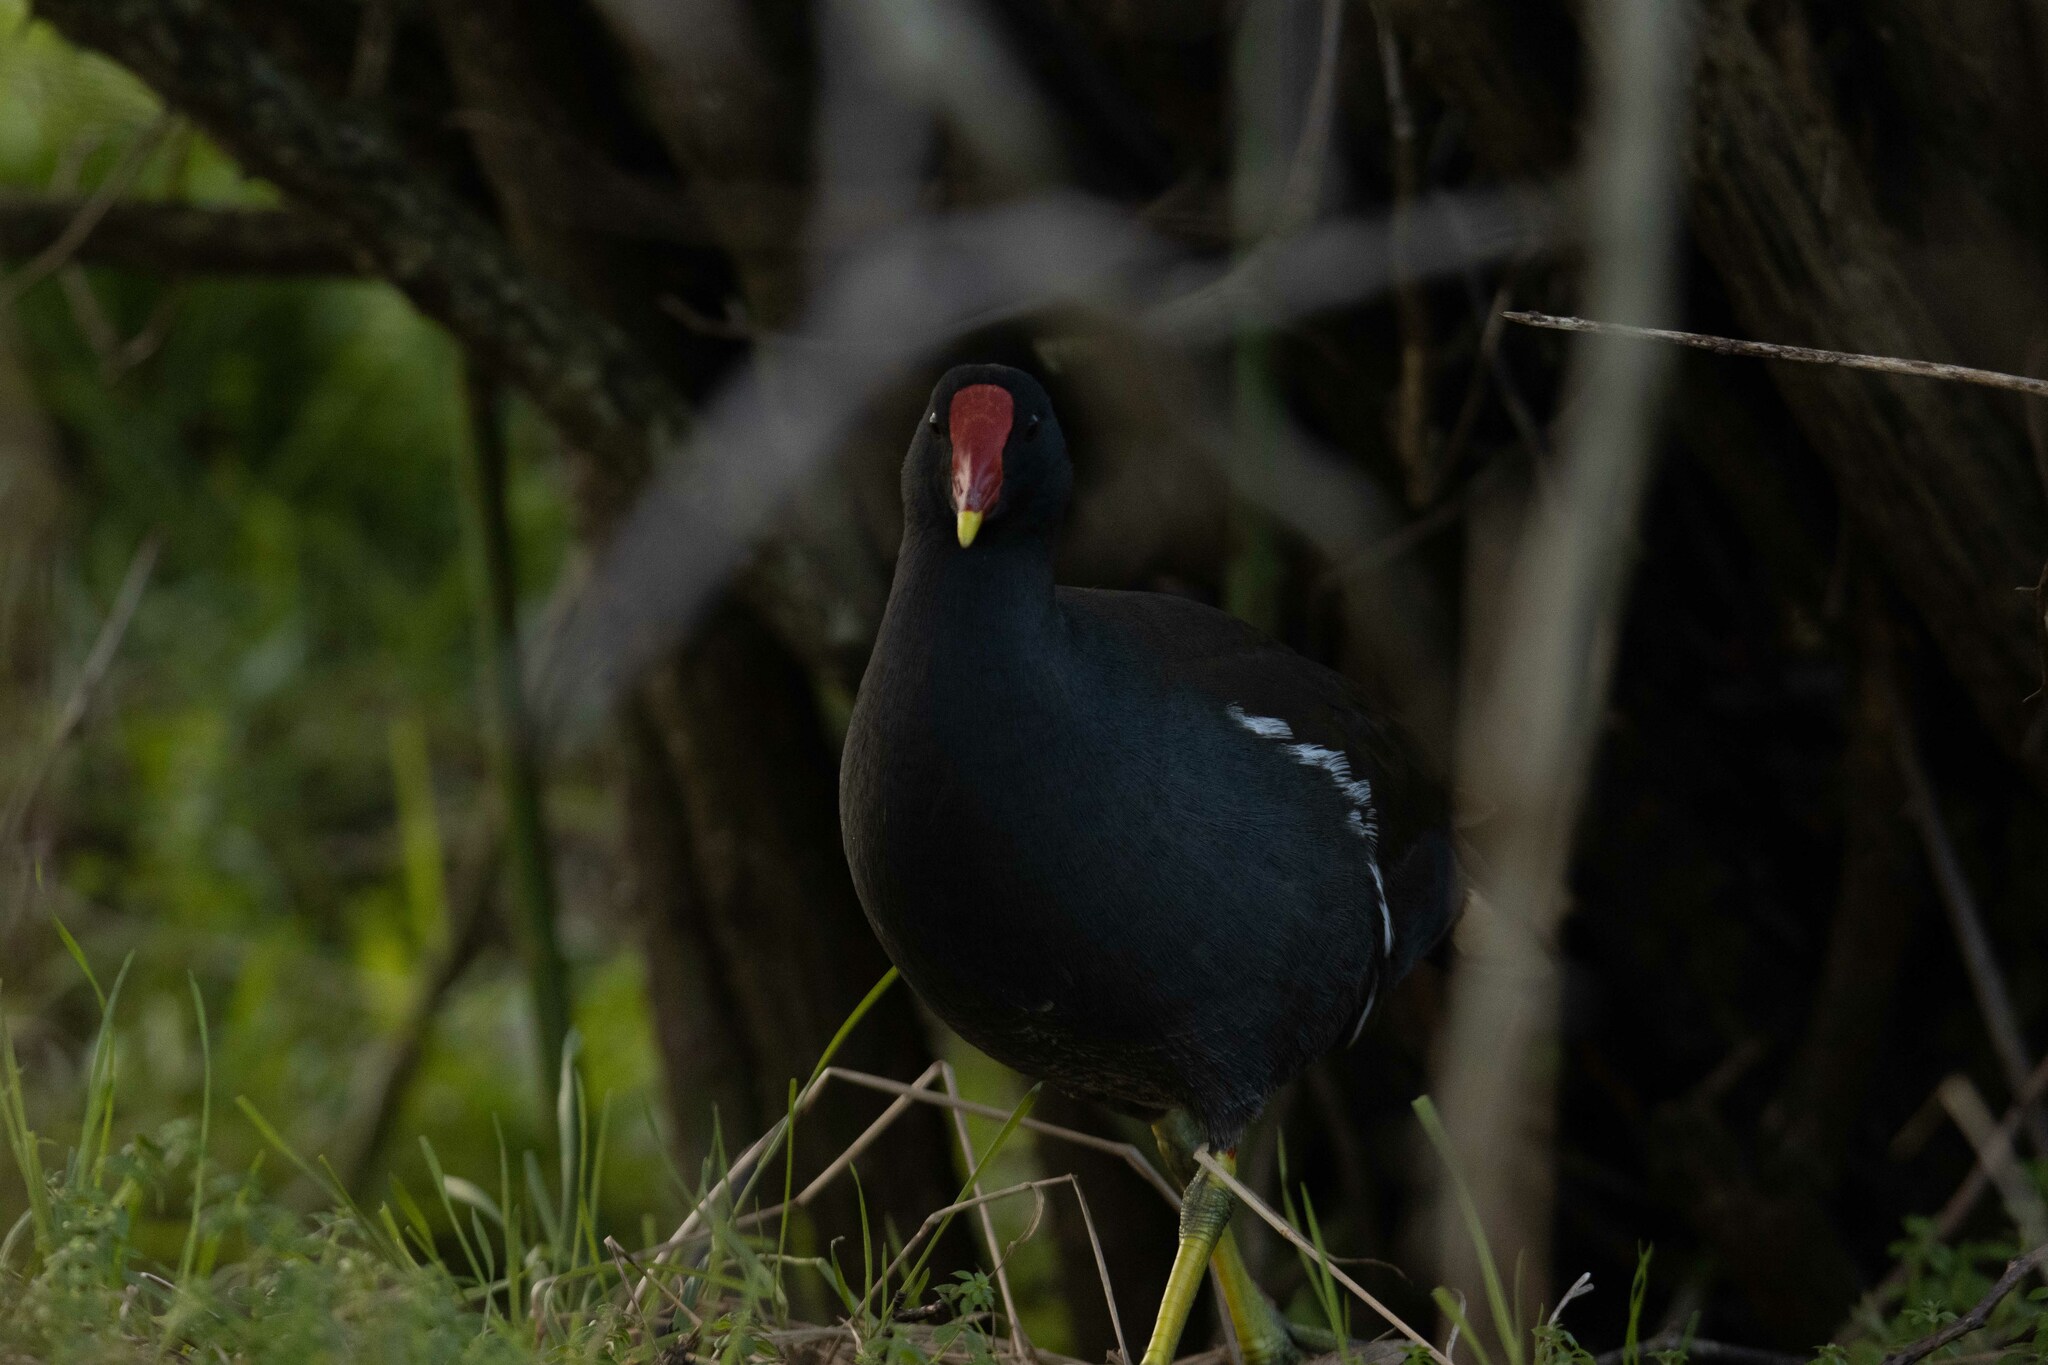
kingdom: Animalia
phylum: Chordata
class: Aves
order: Gruiformes
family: Rallidae
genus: Gallinula
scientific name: Gallinula chloropus
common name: Common moorhen
